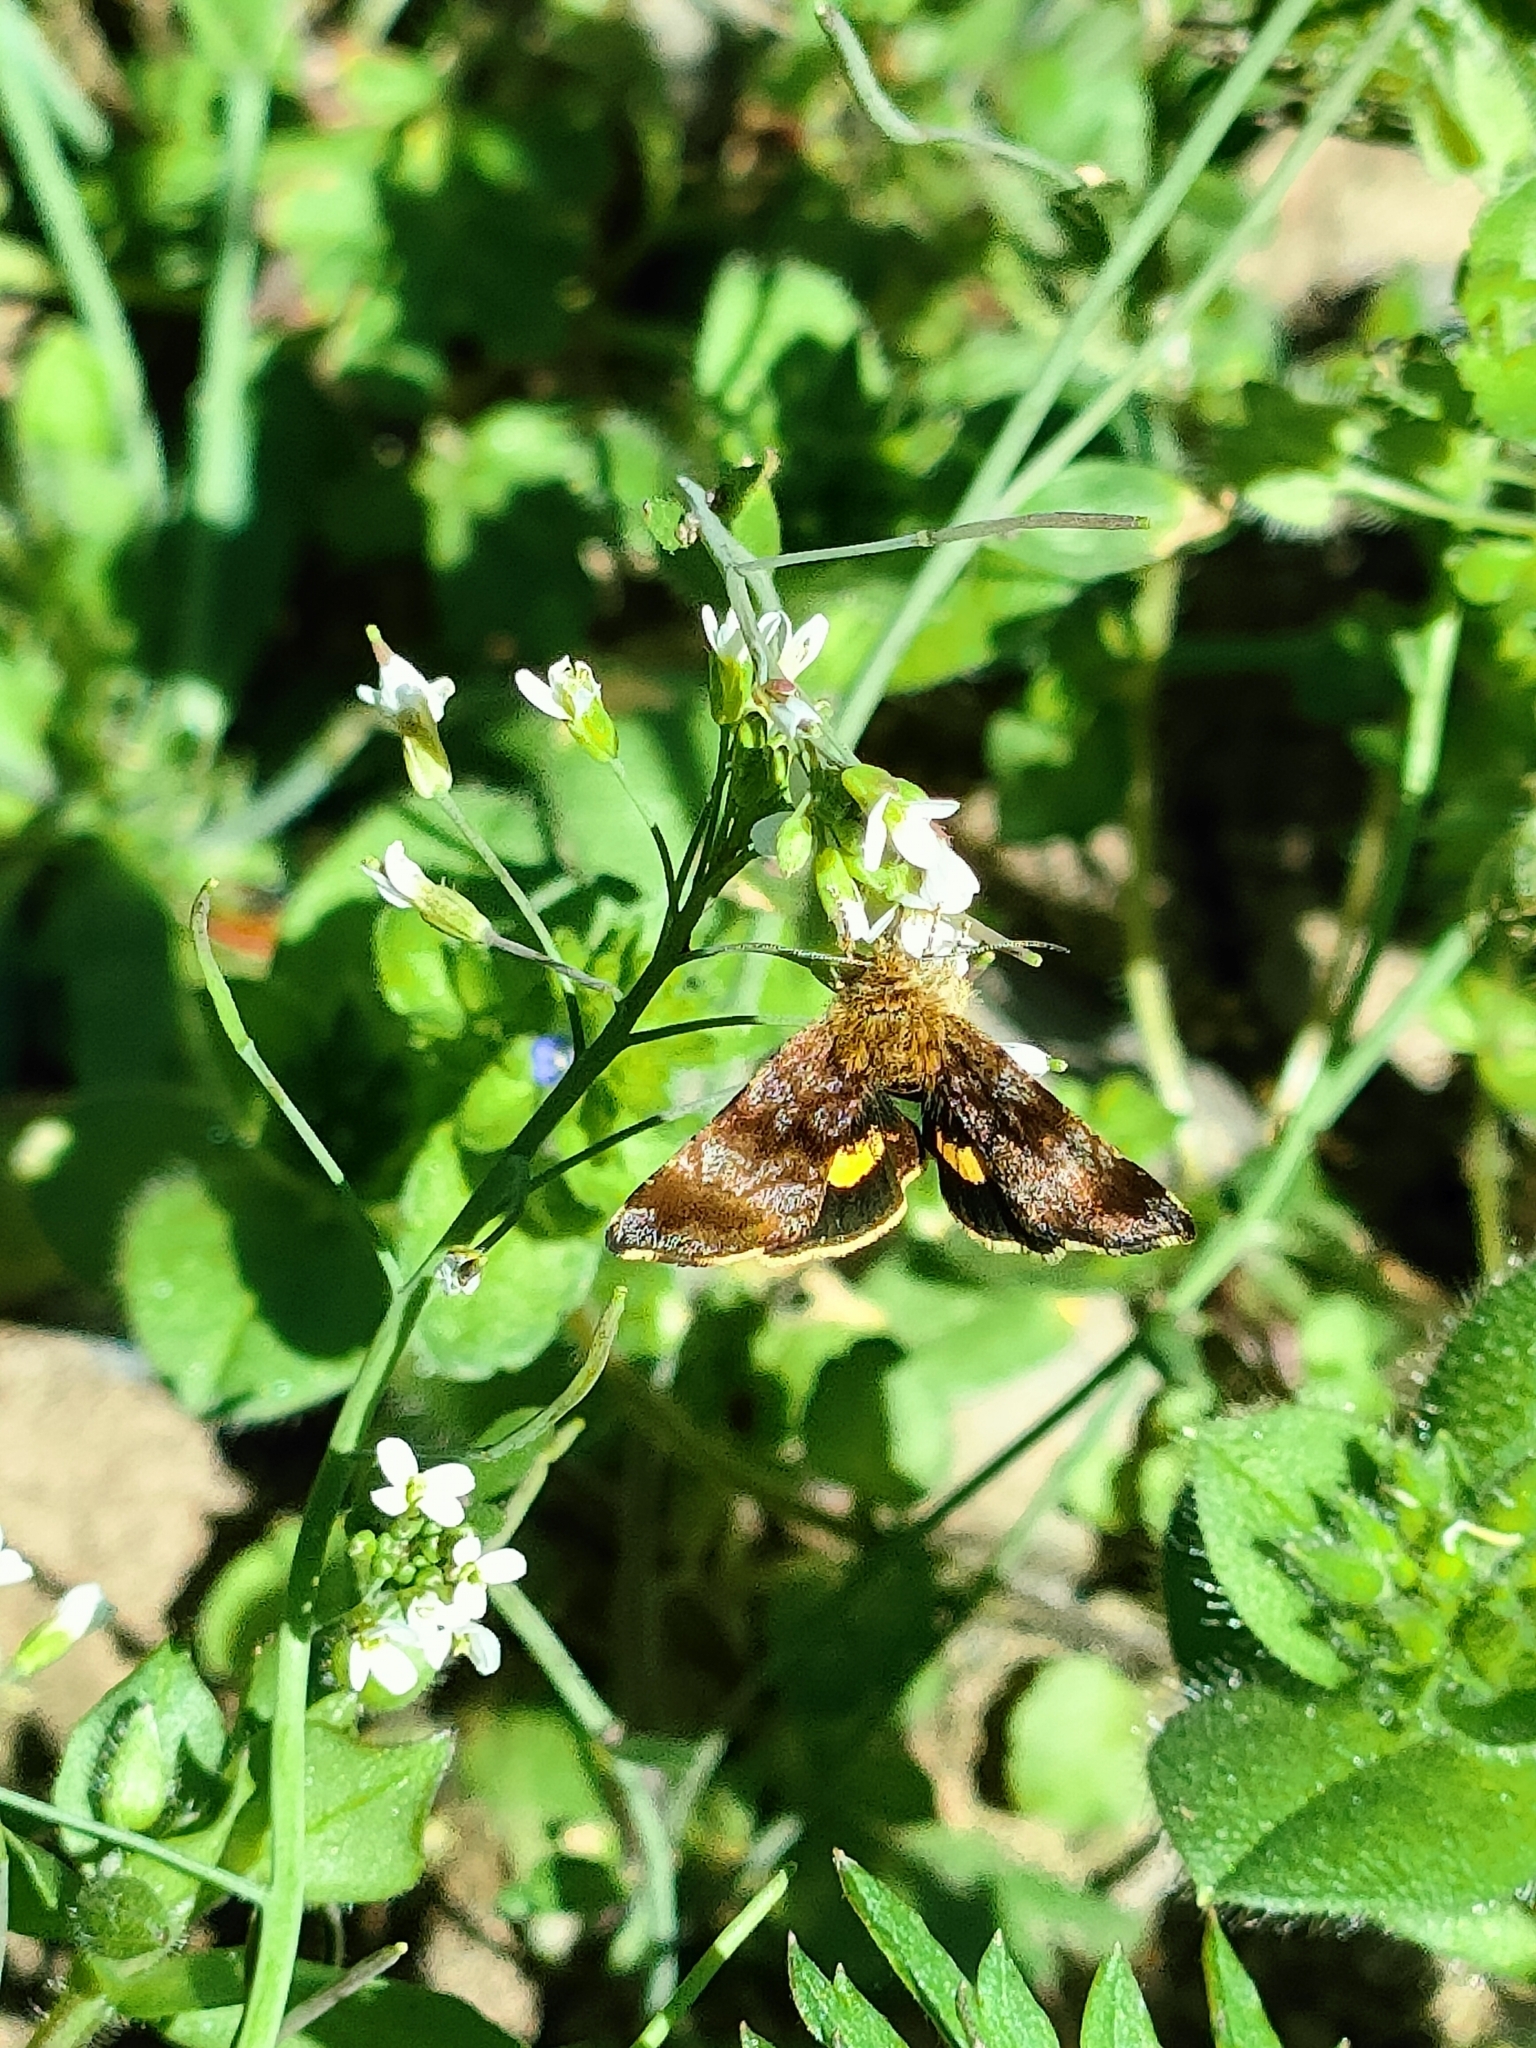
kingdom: Animalia
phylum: Arthropoda
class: Insecta
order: Lepidoptera
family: Noctuidae
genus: Panemeria
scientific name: Panemeria tenebrata
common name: Small yellow underwing
